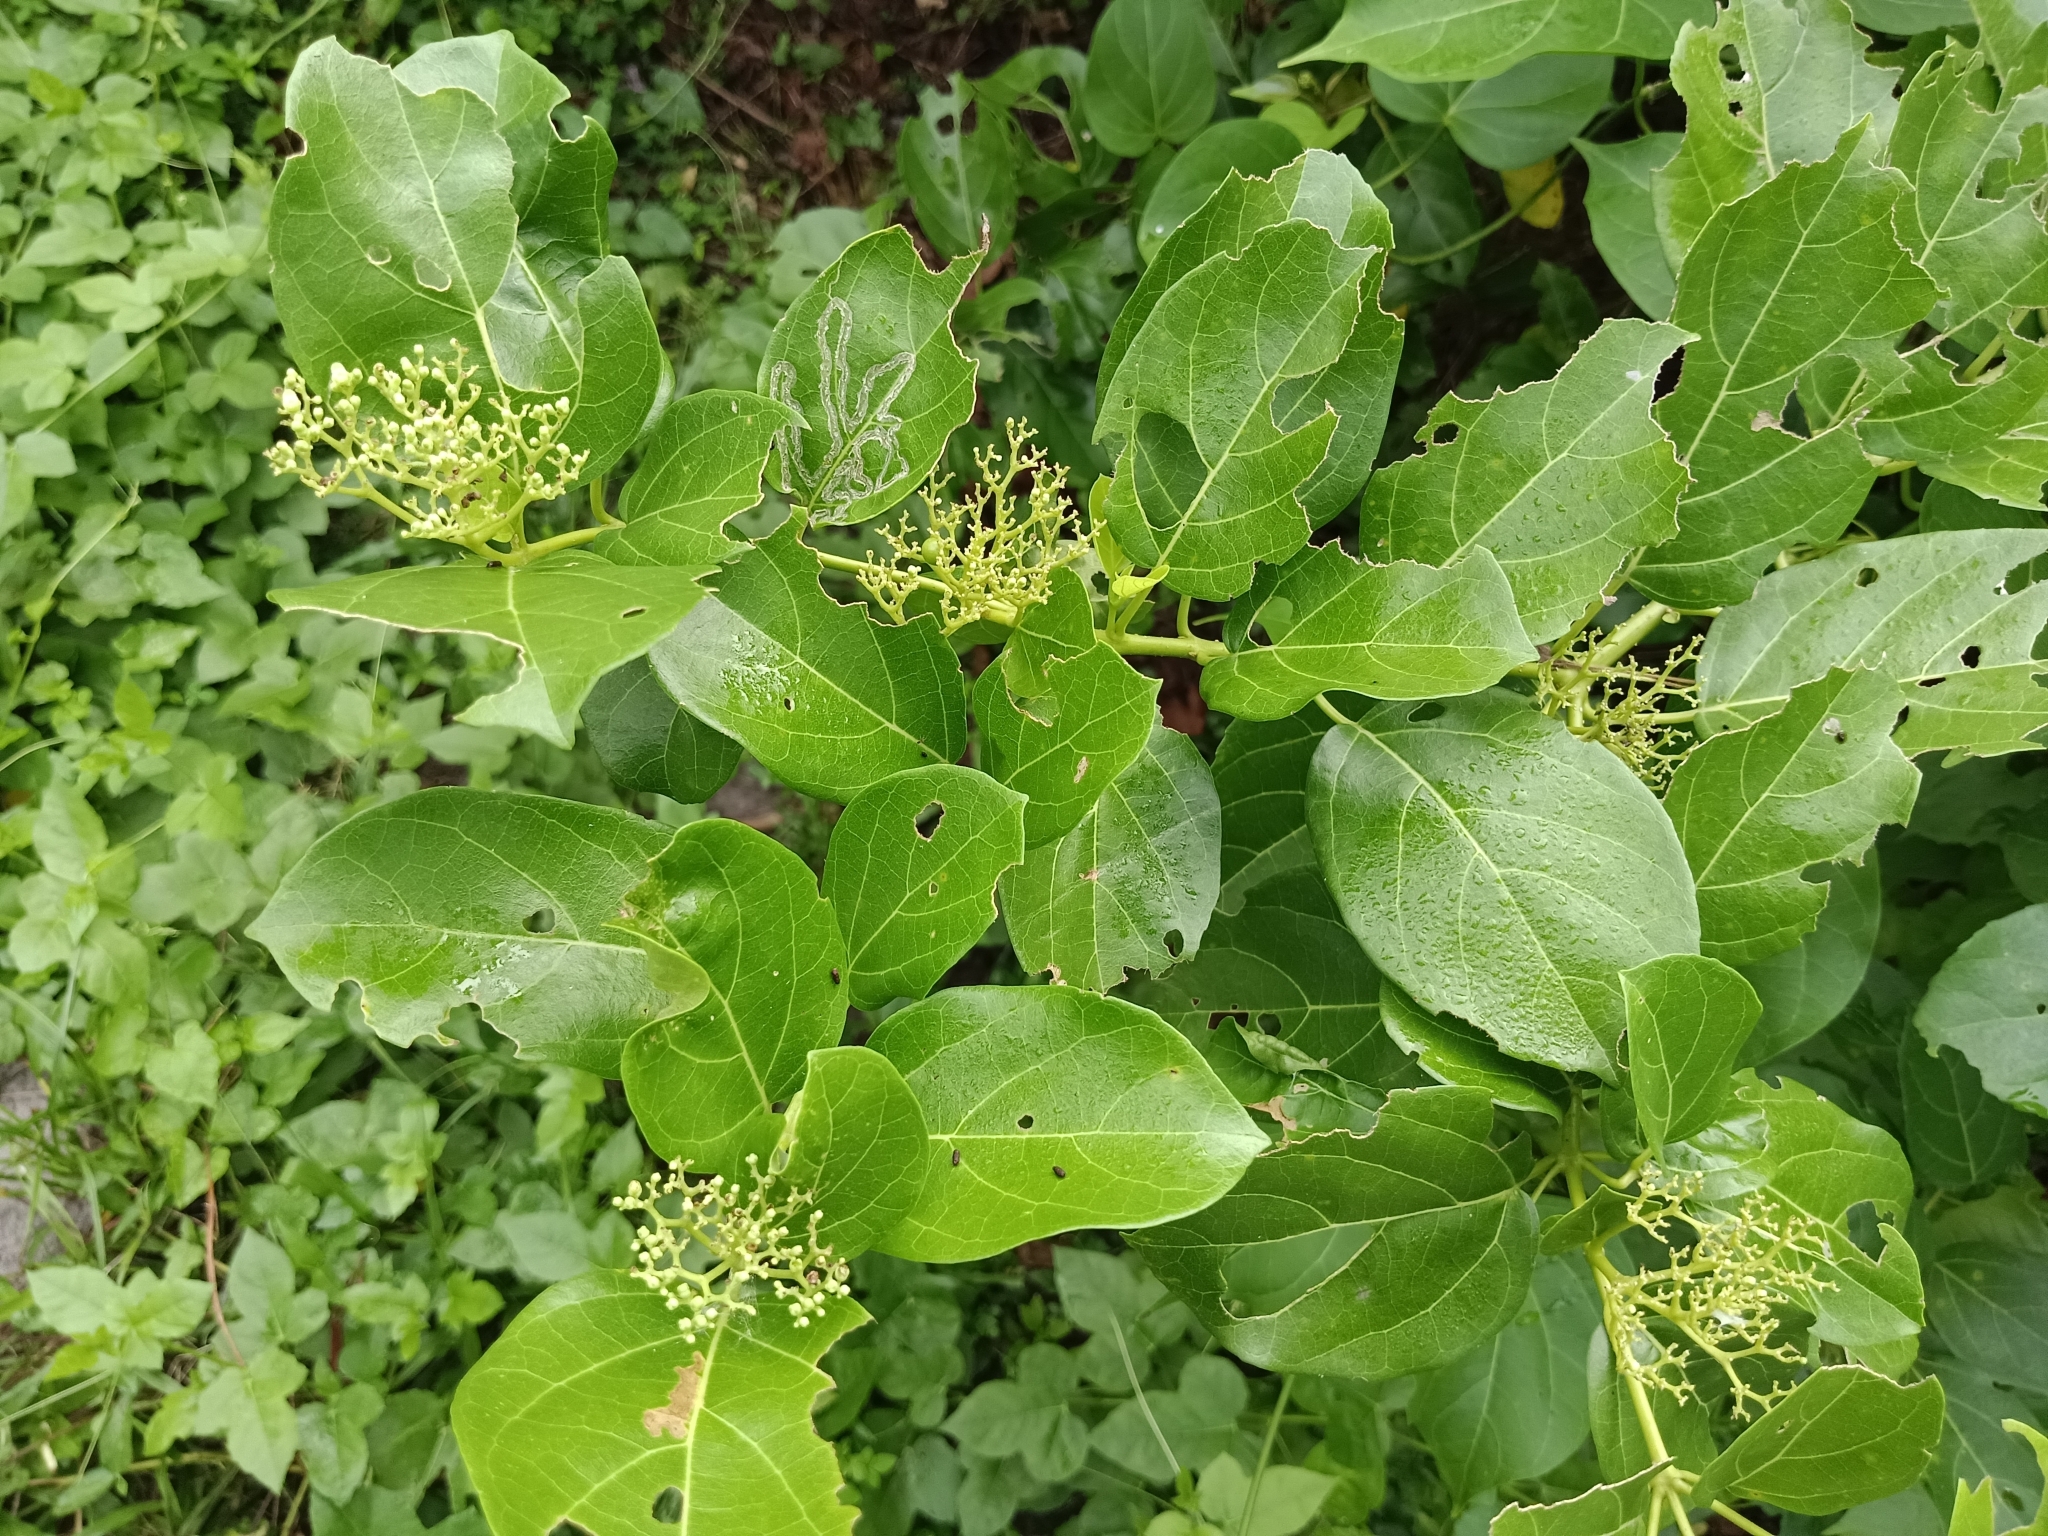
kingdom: Plantae
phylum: Tracheophyta
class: Magnoliopsida
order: Lamiales
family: Lamiaceae
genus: Premna
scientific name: Premna serratifolia
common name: Bastard guelder
